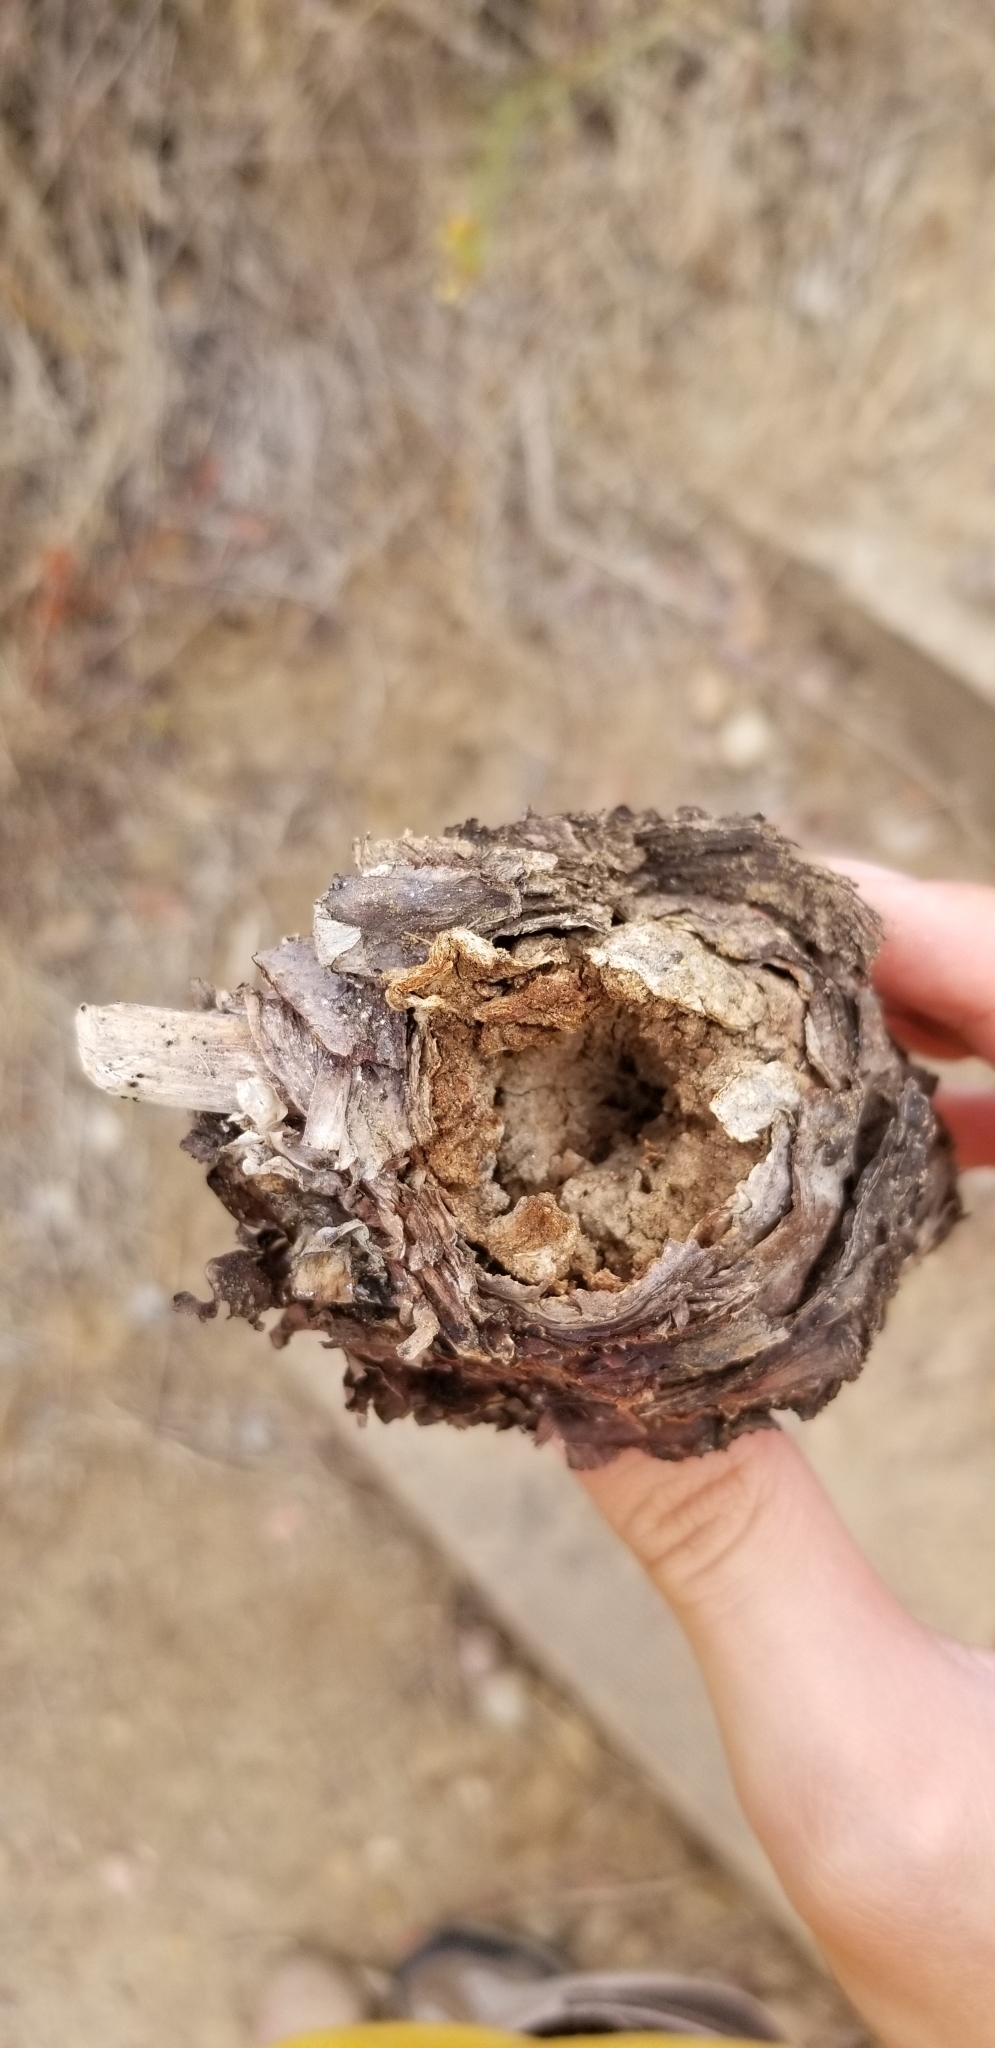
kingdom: Plantae
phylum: Tracheophyta
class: Magnoliopsida
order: Saxifragales
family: Crassulaceae
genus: Dudleya
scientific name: Dudleya pulverulenta
